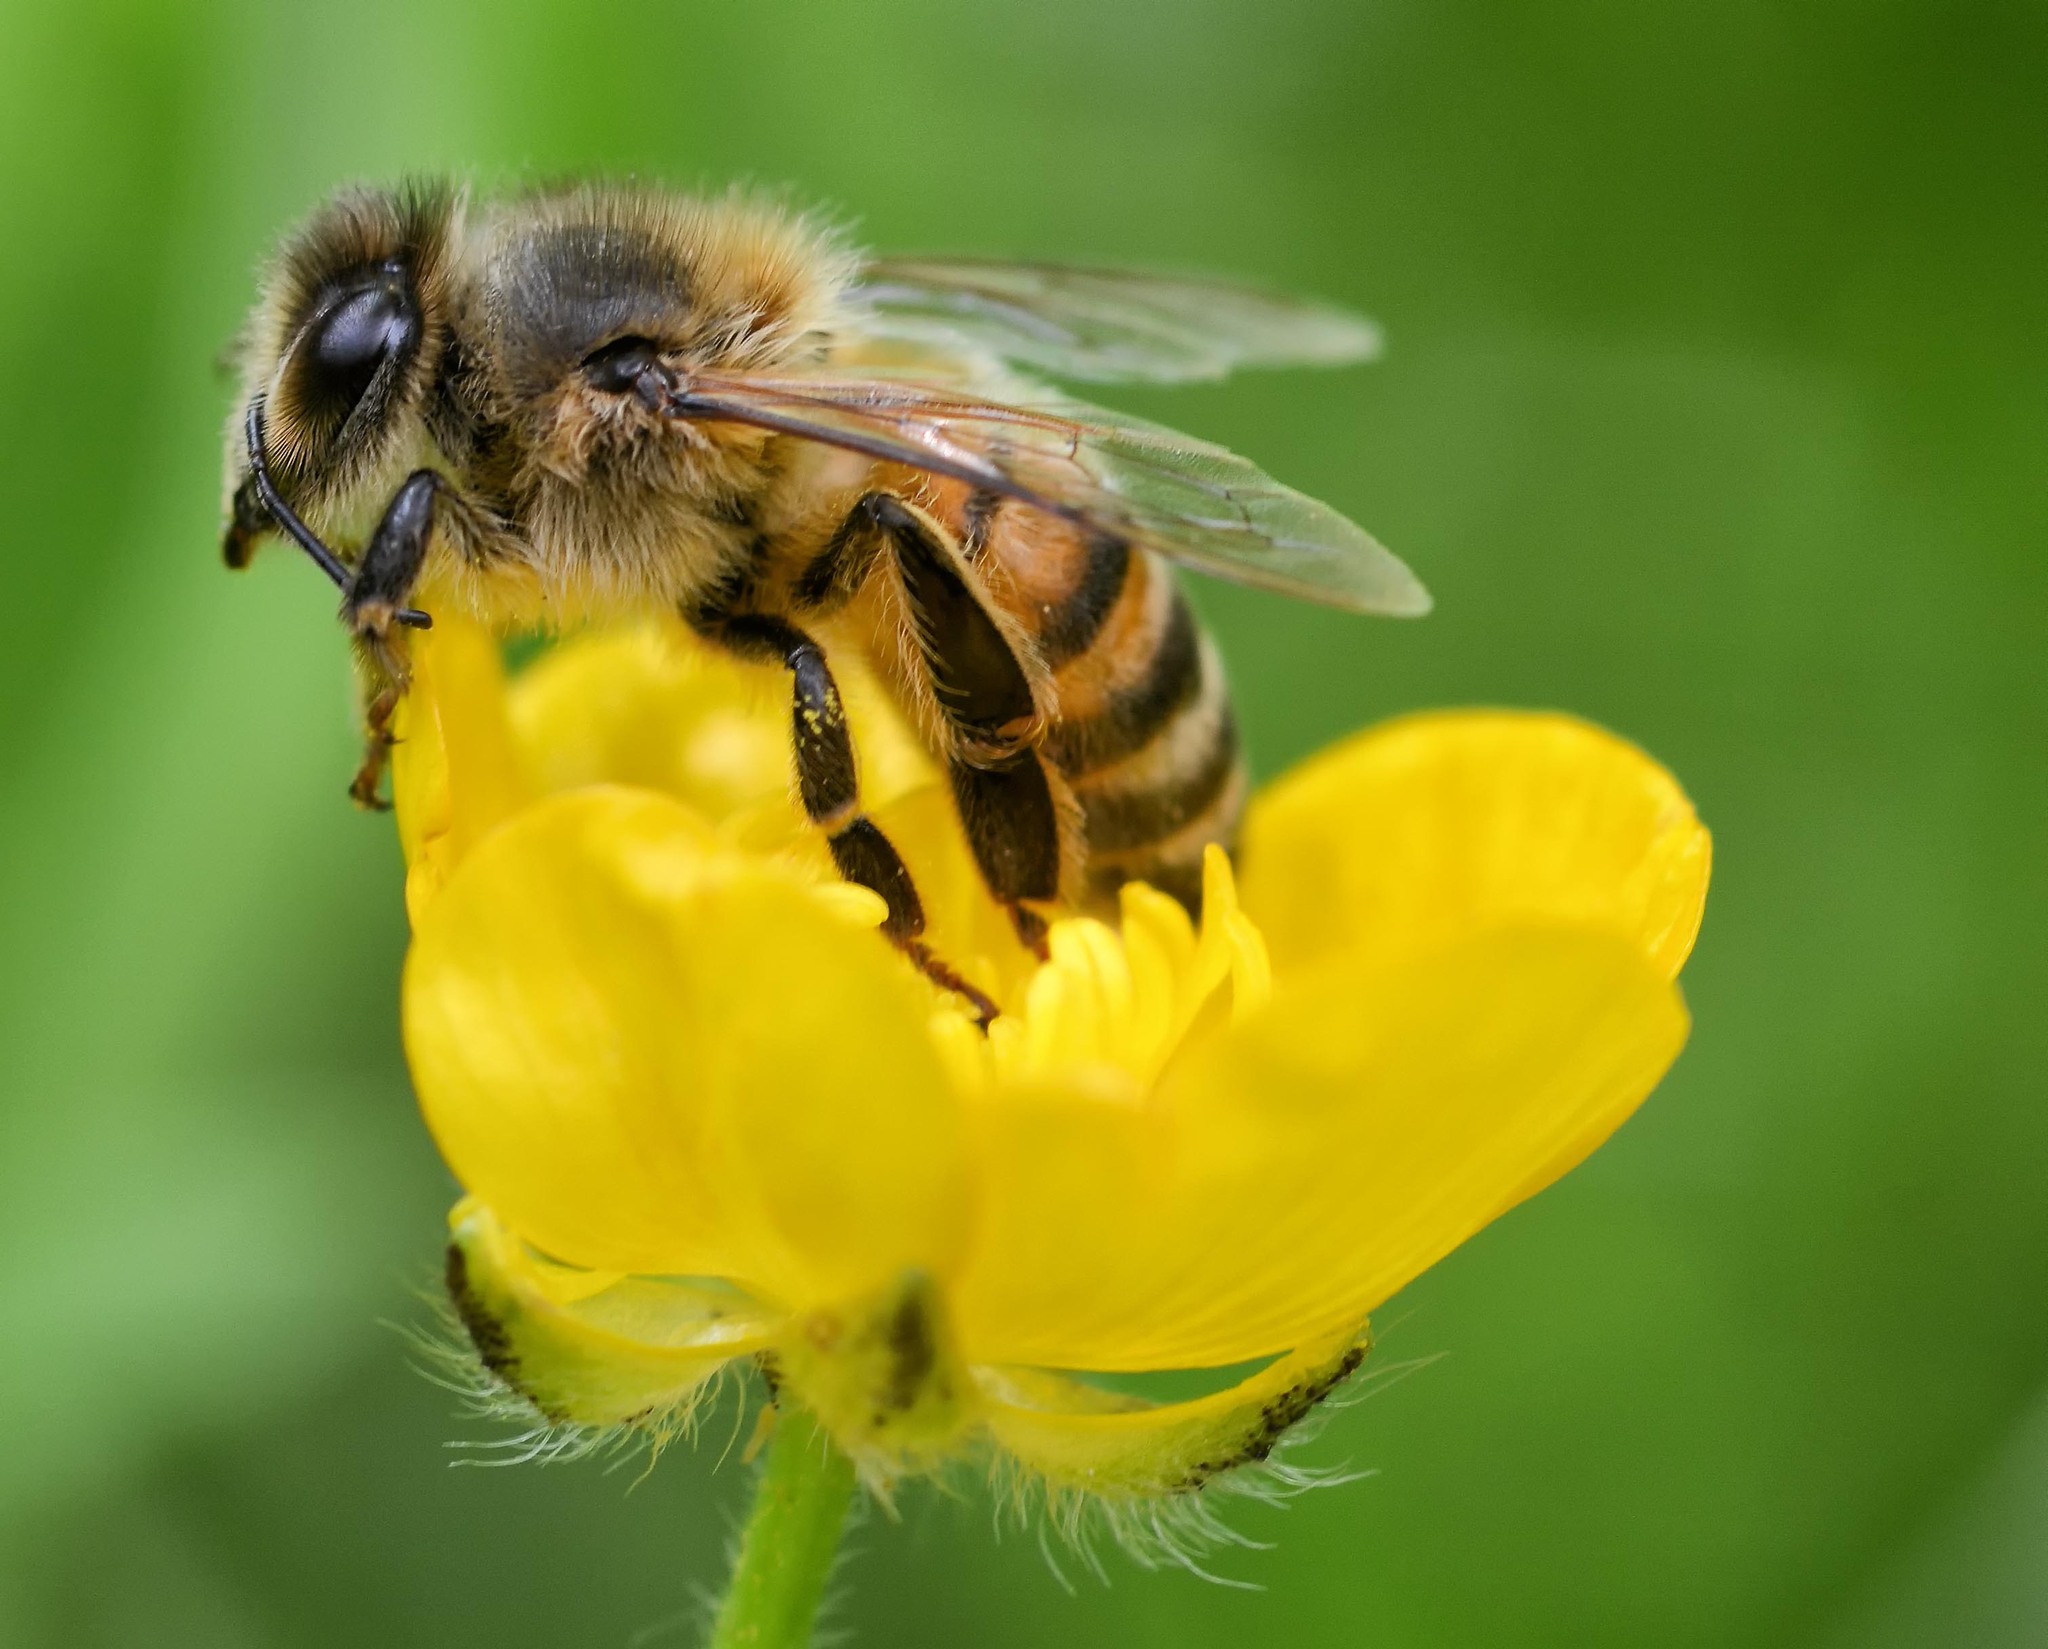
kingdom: Animalia
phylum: Arthropoda
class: Insecta
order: Hymenoptera
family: Apidae
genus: Apis
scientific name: Apis mellifera
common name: Honey bee
